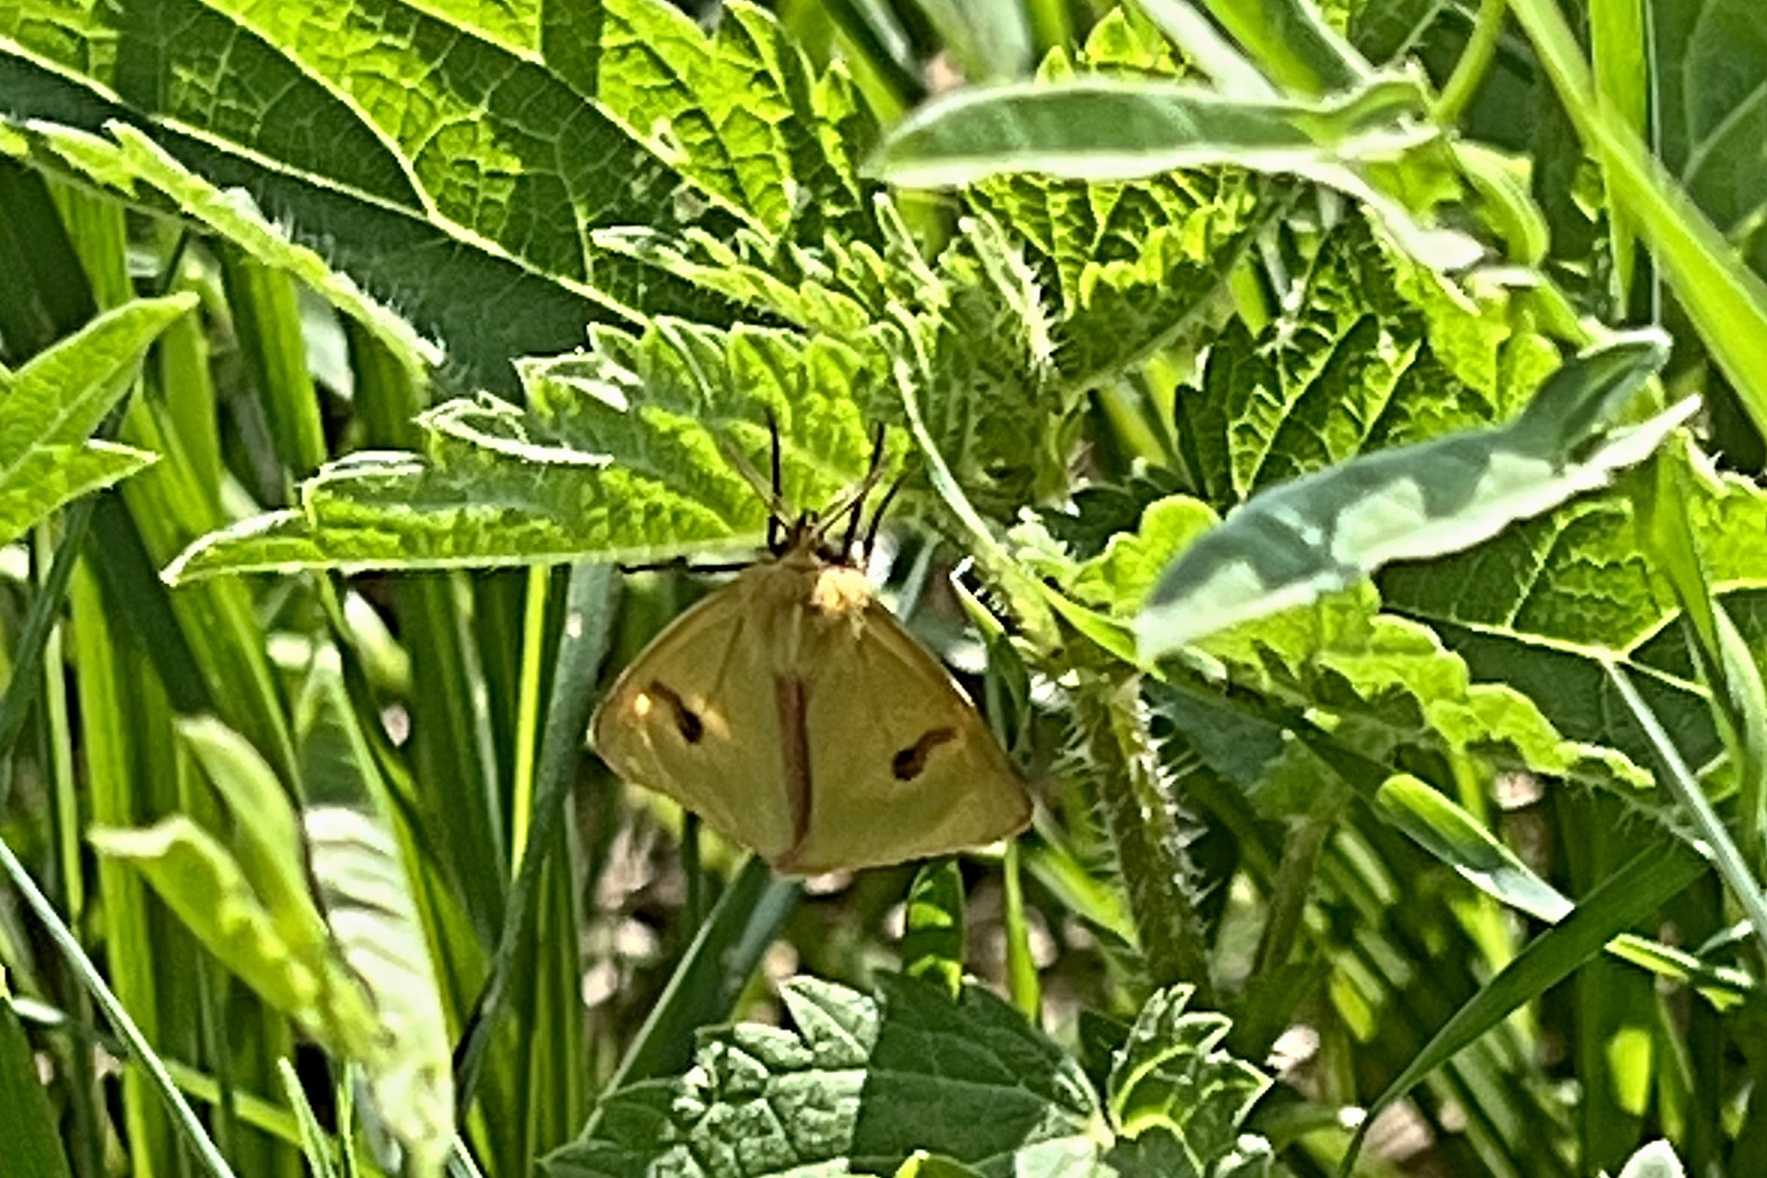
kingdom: Animalia
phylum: Arthropoda
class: Insecta
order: Lepidoptera
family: Erebidae
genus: Diacrisia
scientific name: Diacrisia sannio
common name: Clouded buff
